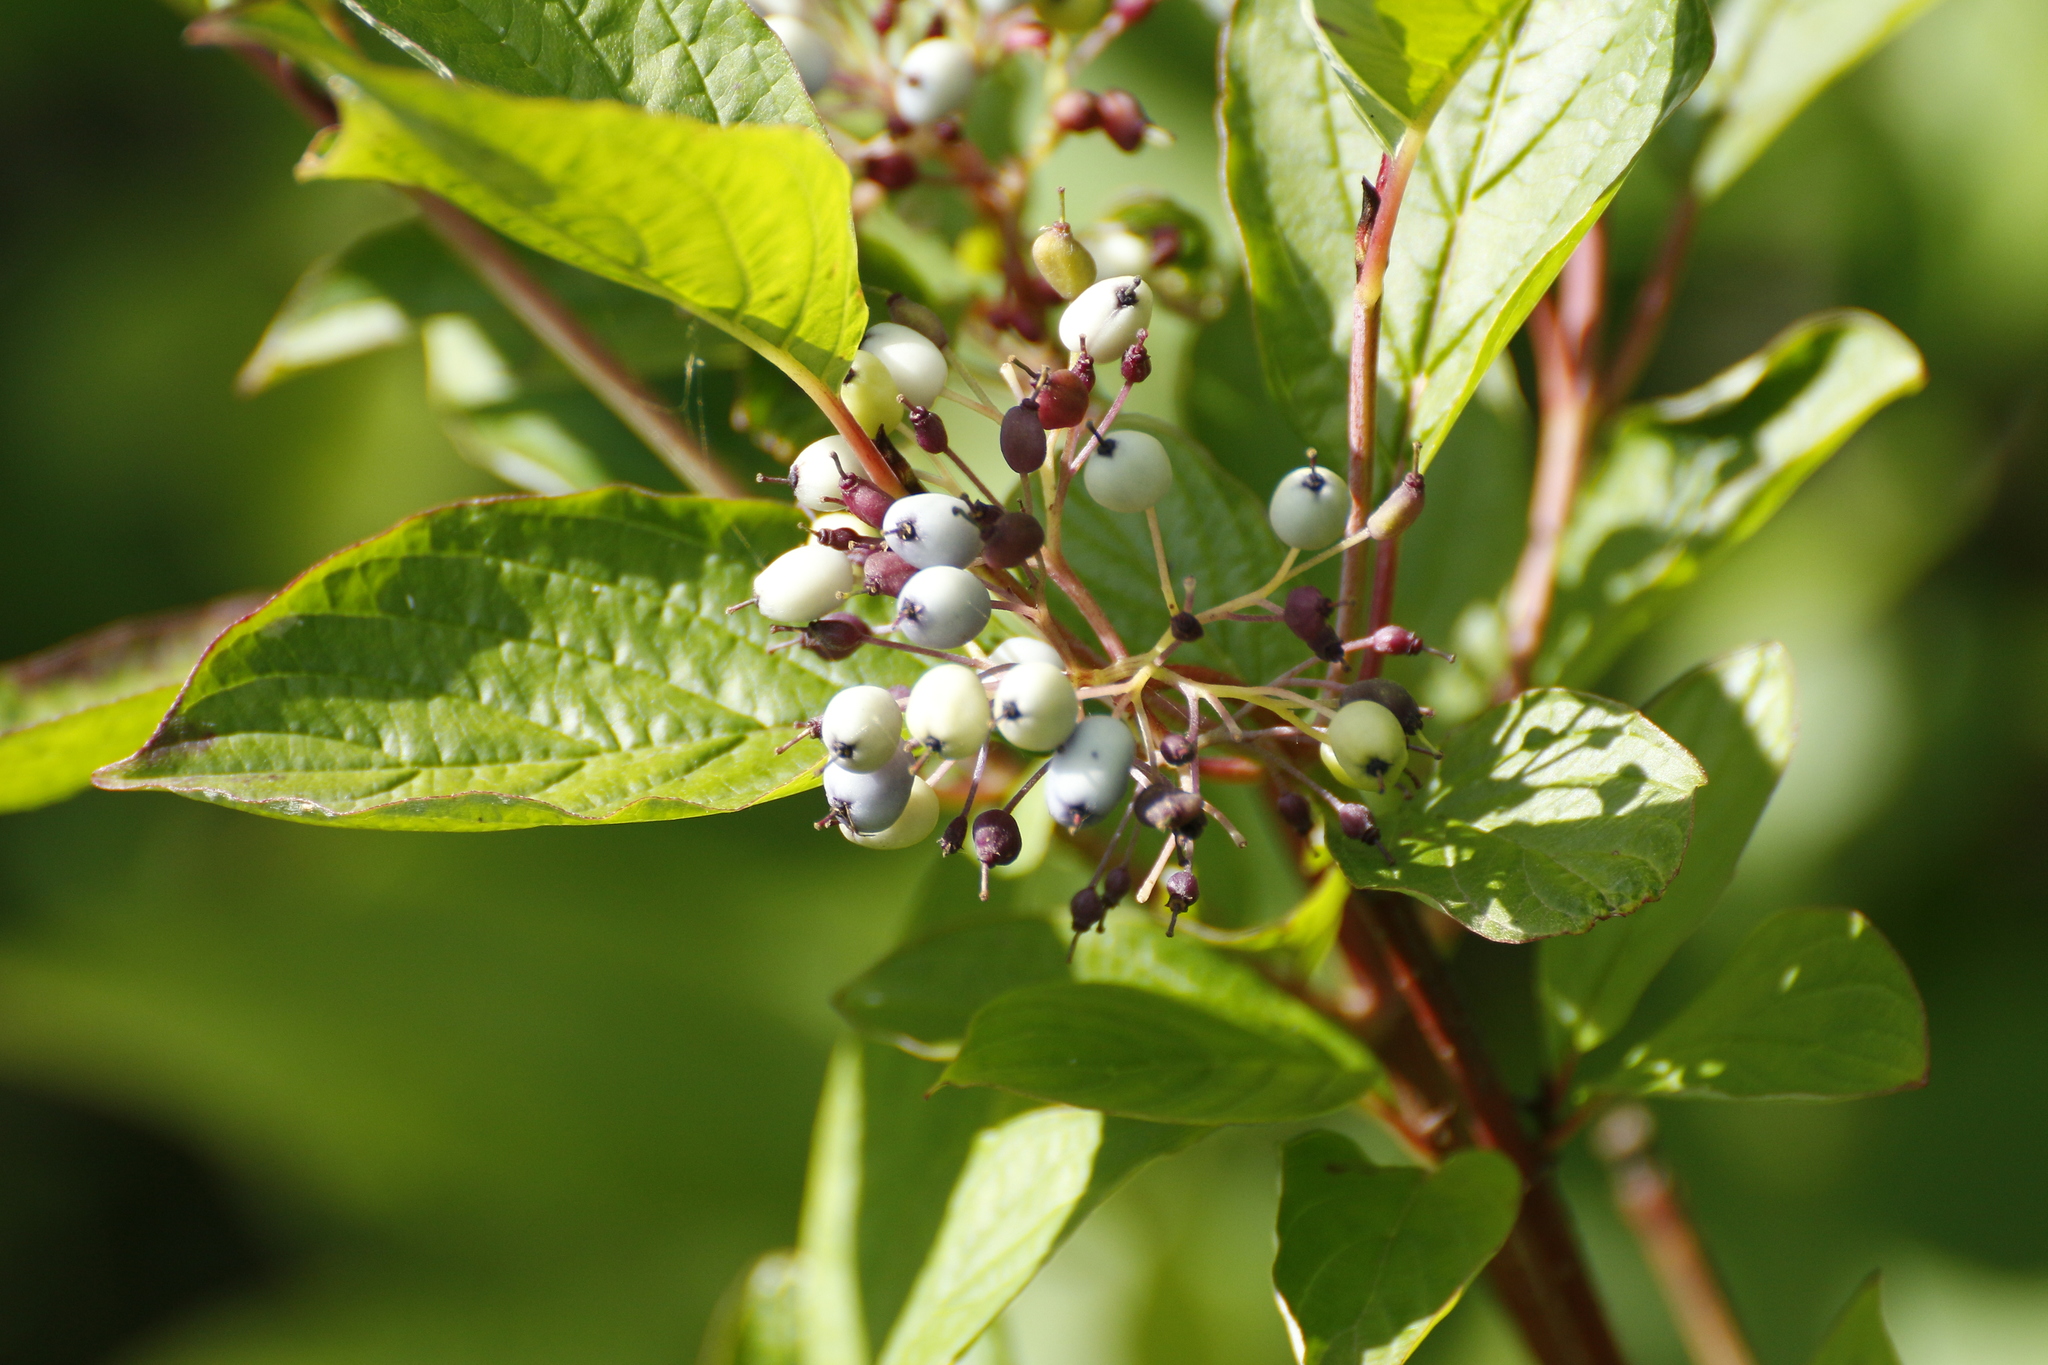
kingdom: Plantae
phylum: Tracheophyta
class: Magnoliopsida
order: Cornales
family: Cornaceae
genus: Cornus
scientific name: Cornus alba
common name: White dogwood
